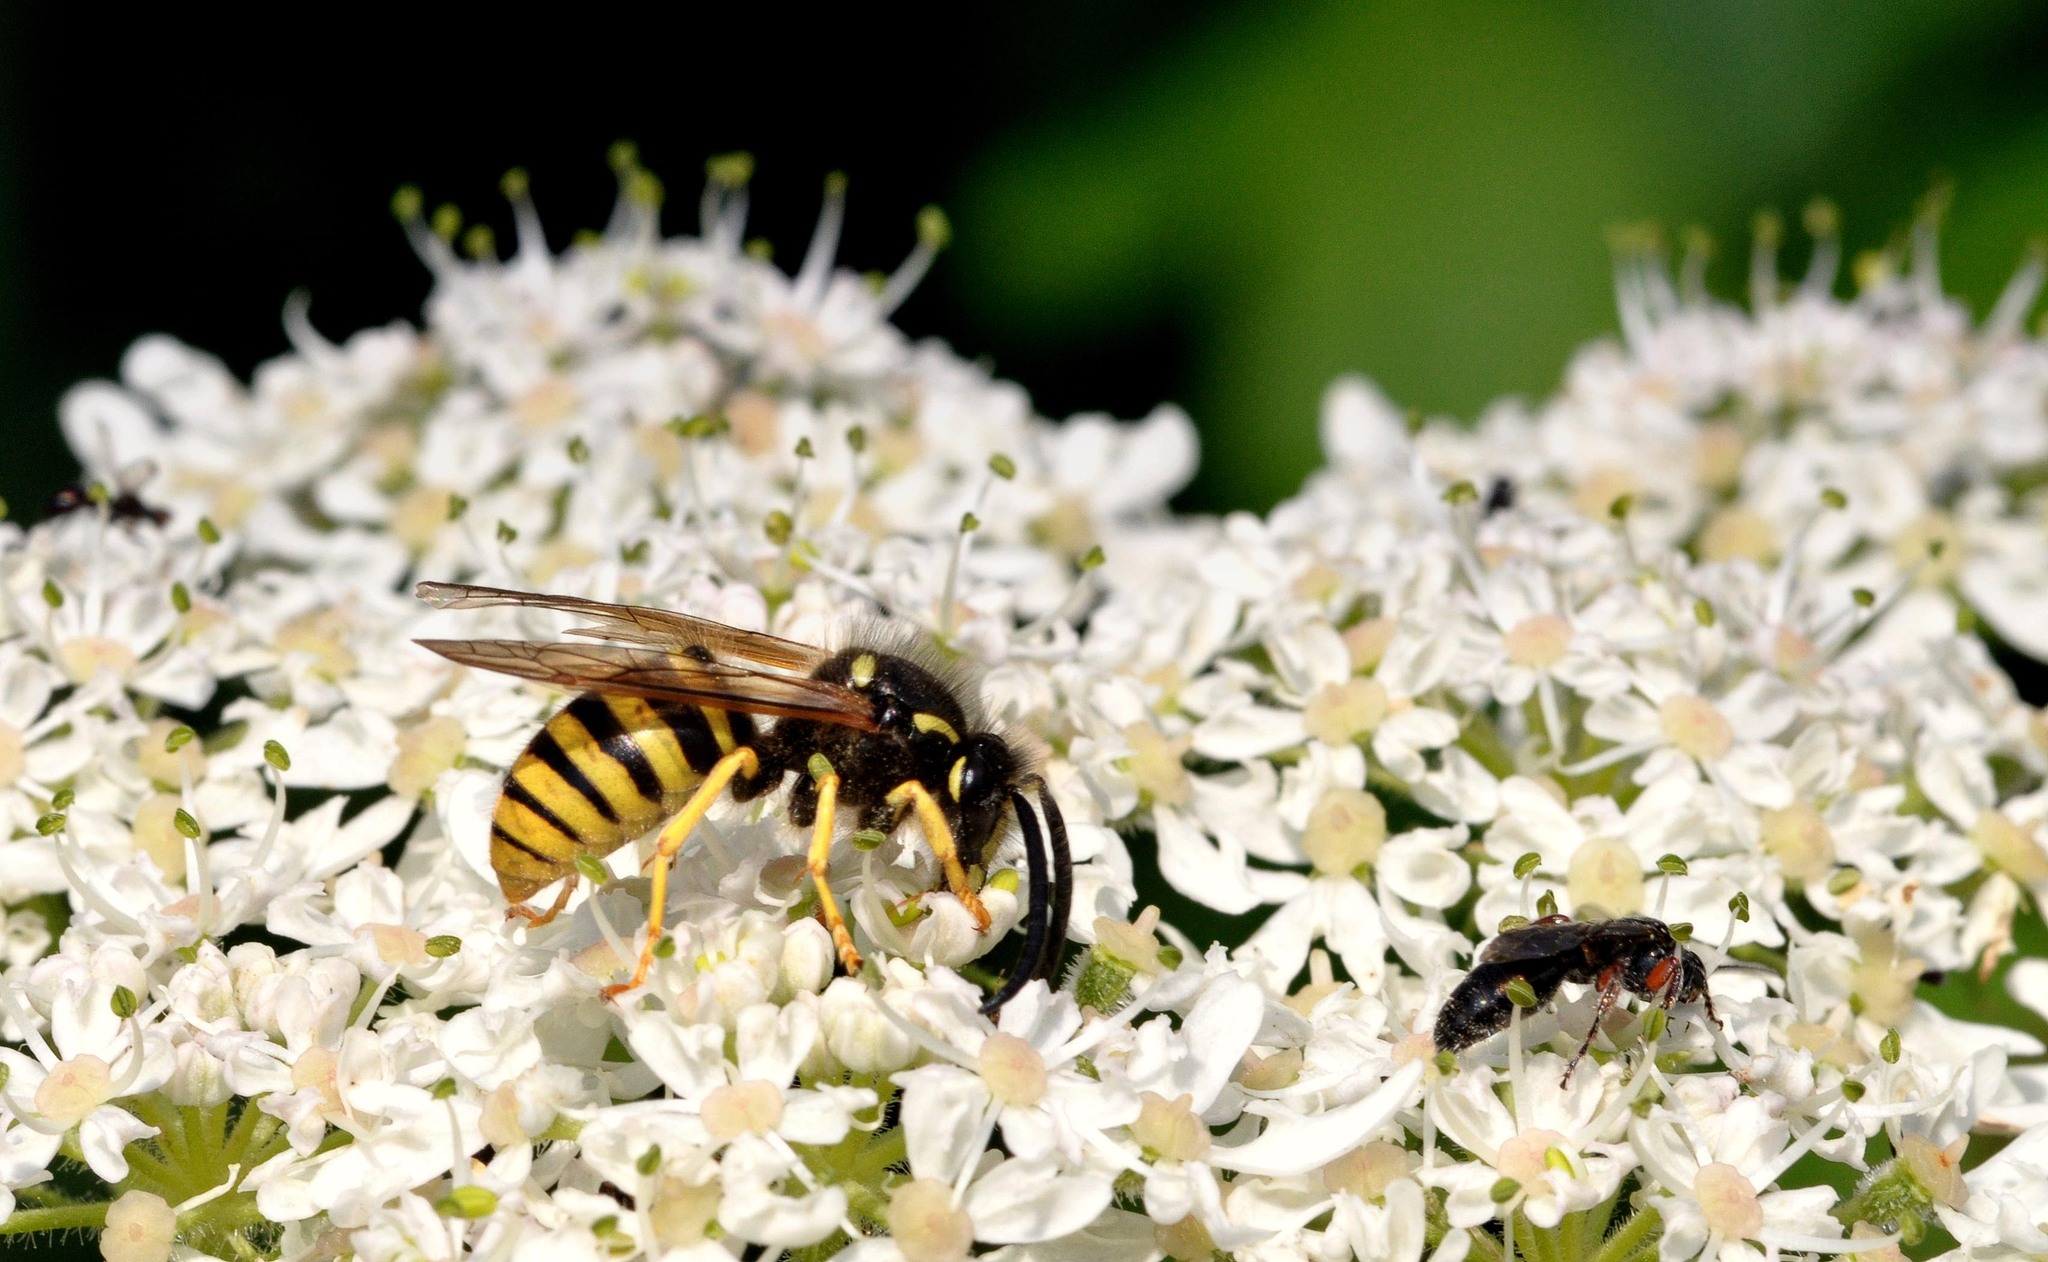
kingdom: Animalia
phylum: Arthropoda
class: Insecta
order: Hymenoptera
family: Vespidae
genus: Dolichovespula
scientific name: Dolichovespula sylvestris
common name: Tree wasp
